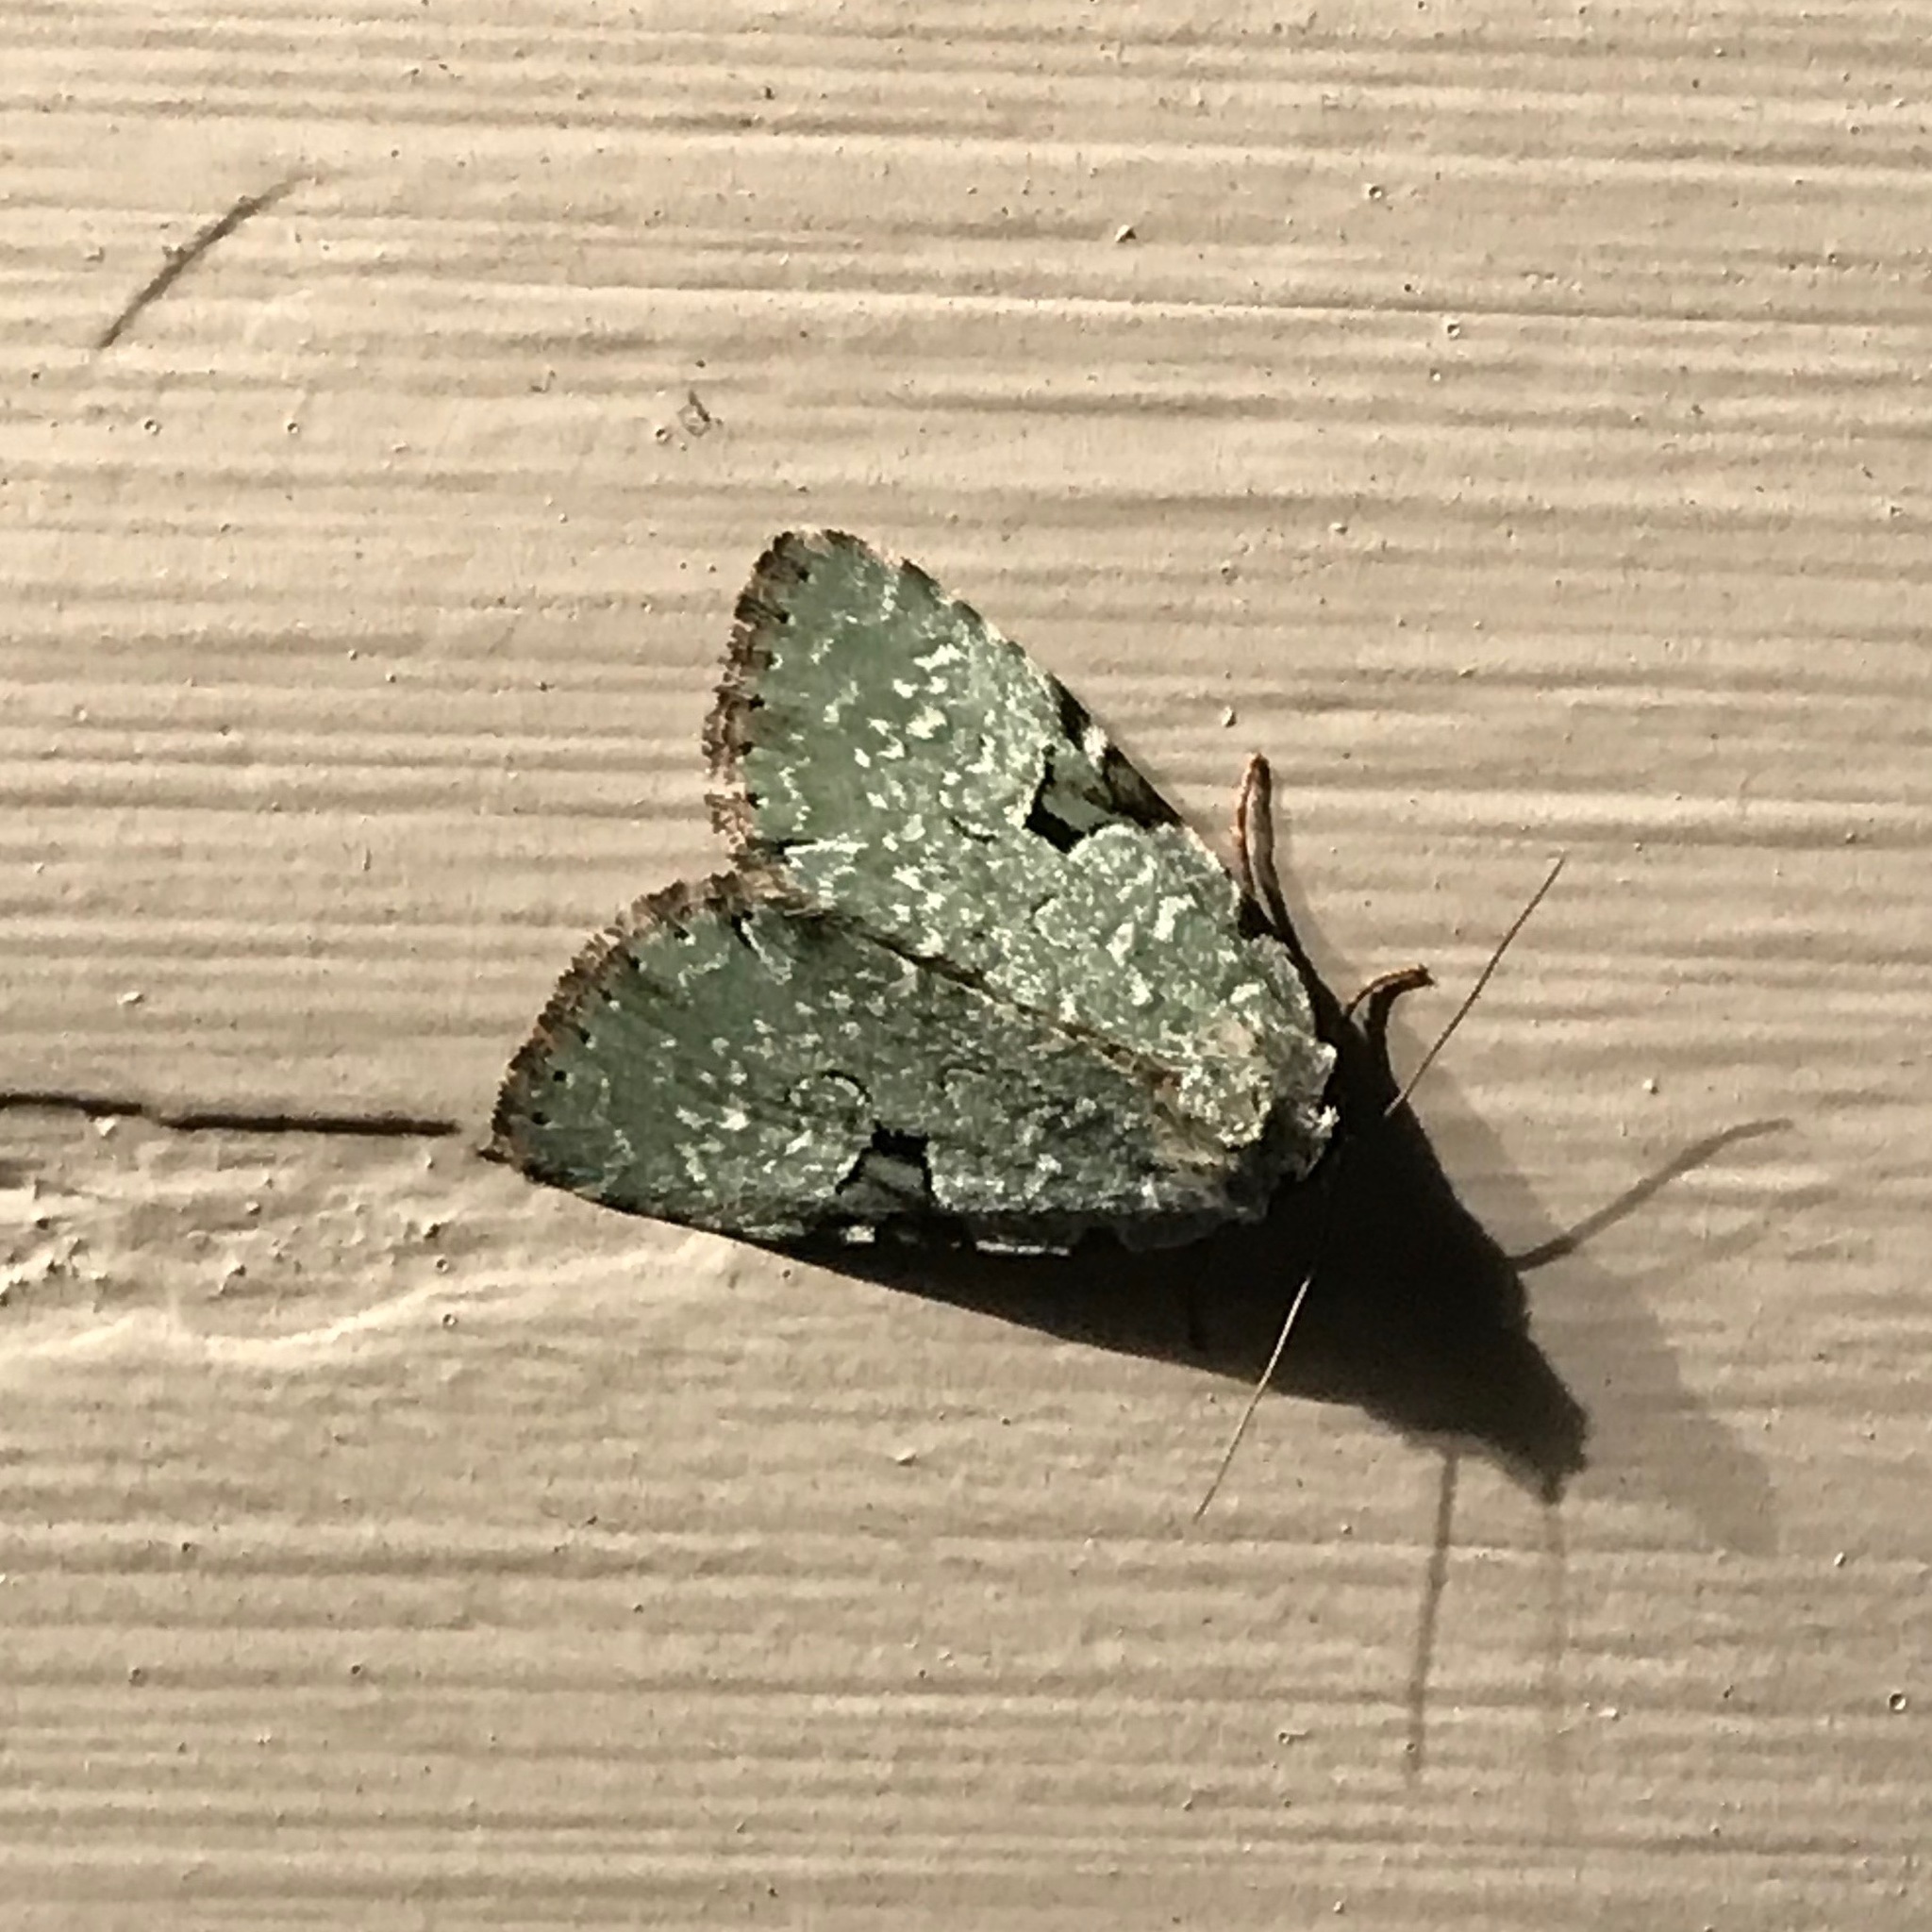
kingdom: Animalia
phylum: Arthropoda
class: Insecta
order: Lepidoptera
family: Noctuidae
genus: Leuconycta
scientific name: Leuconycta diphteroides
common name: Green leuconycta moth
